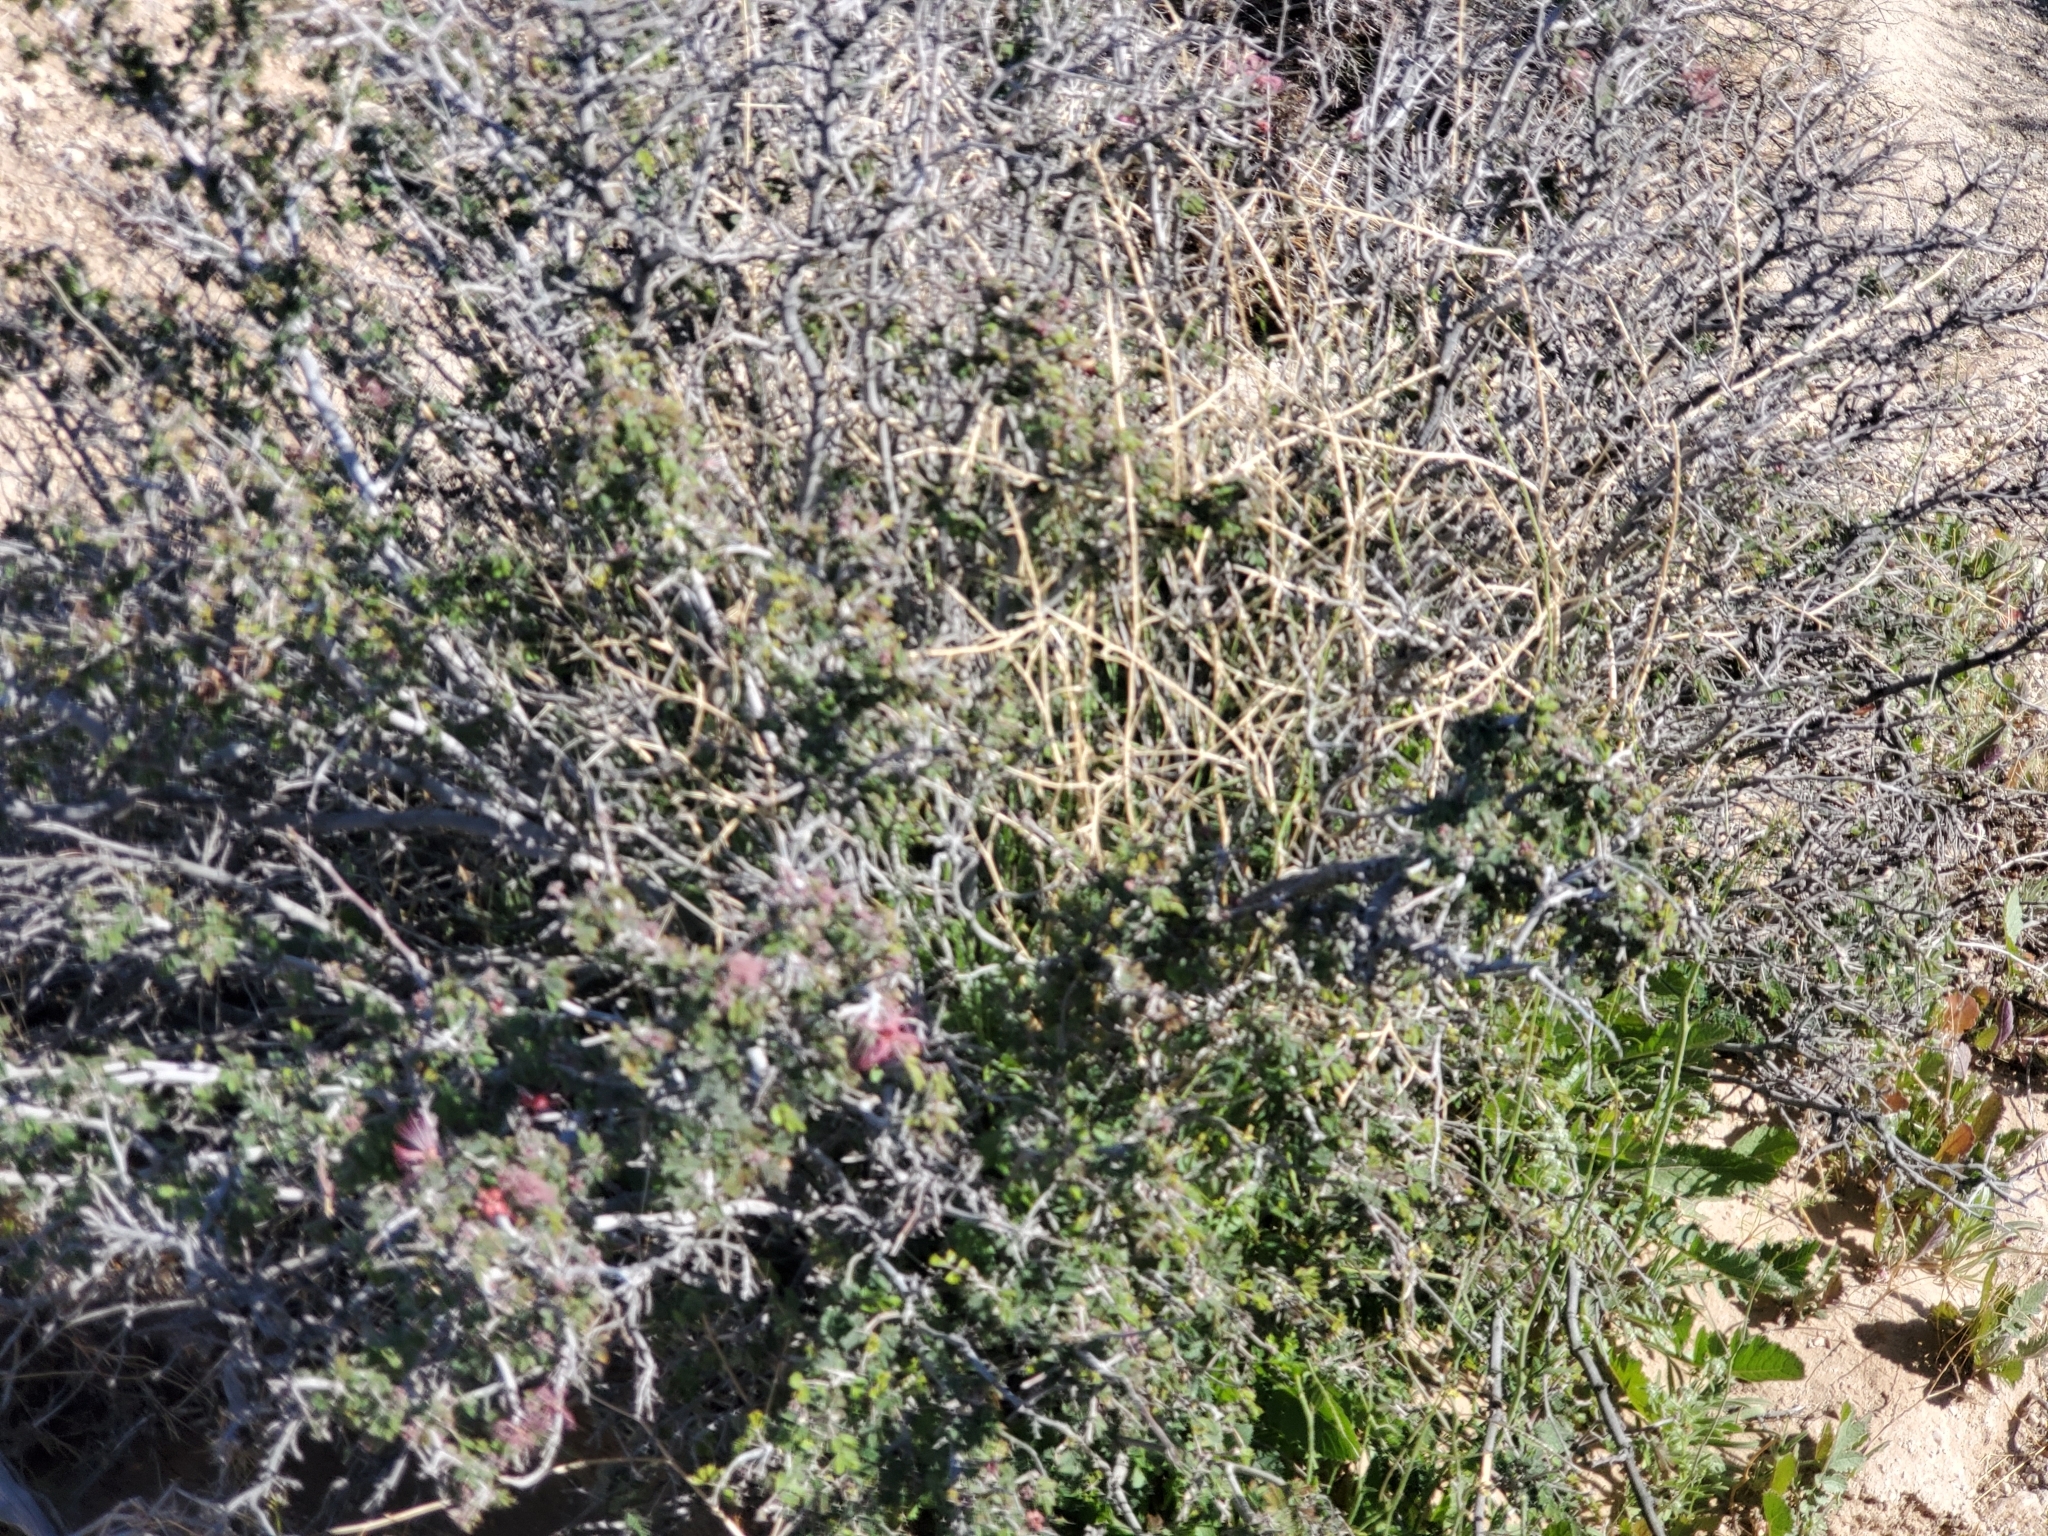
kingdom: Plantae
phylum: Tracheophyta
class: Magnoliopsida
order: Fabales
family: Fabaceae
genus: Calliandra
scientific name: Calliandra eriophylla
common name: Fairy-duster
